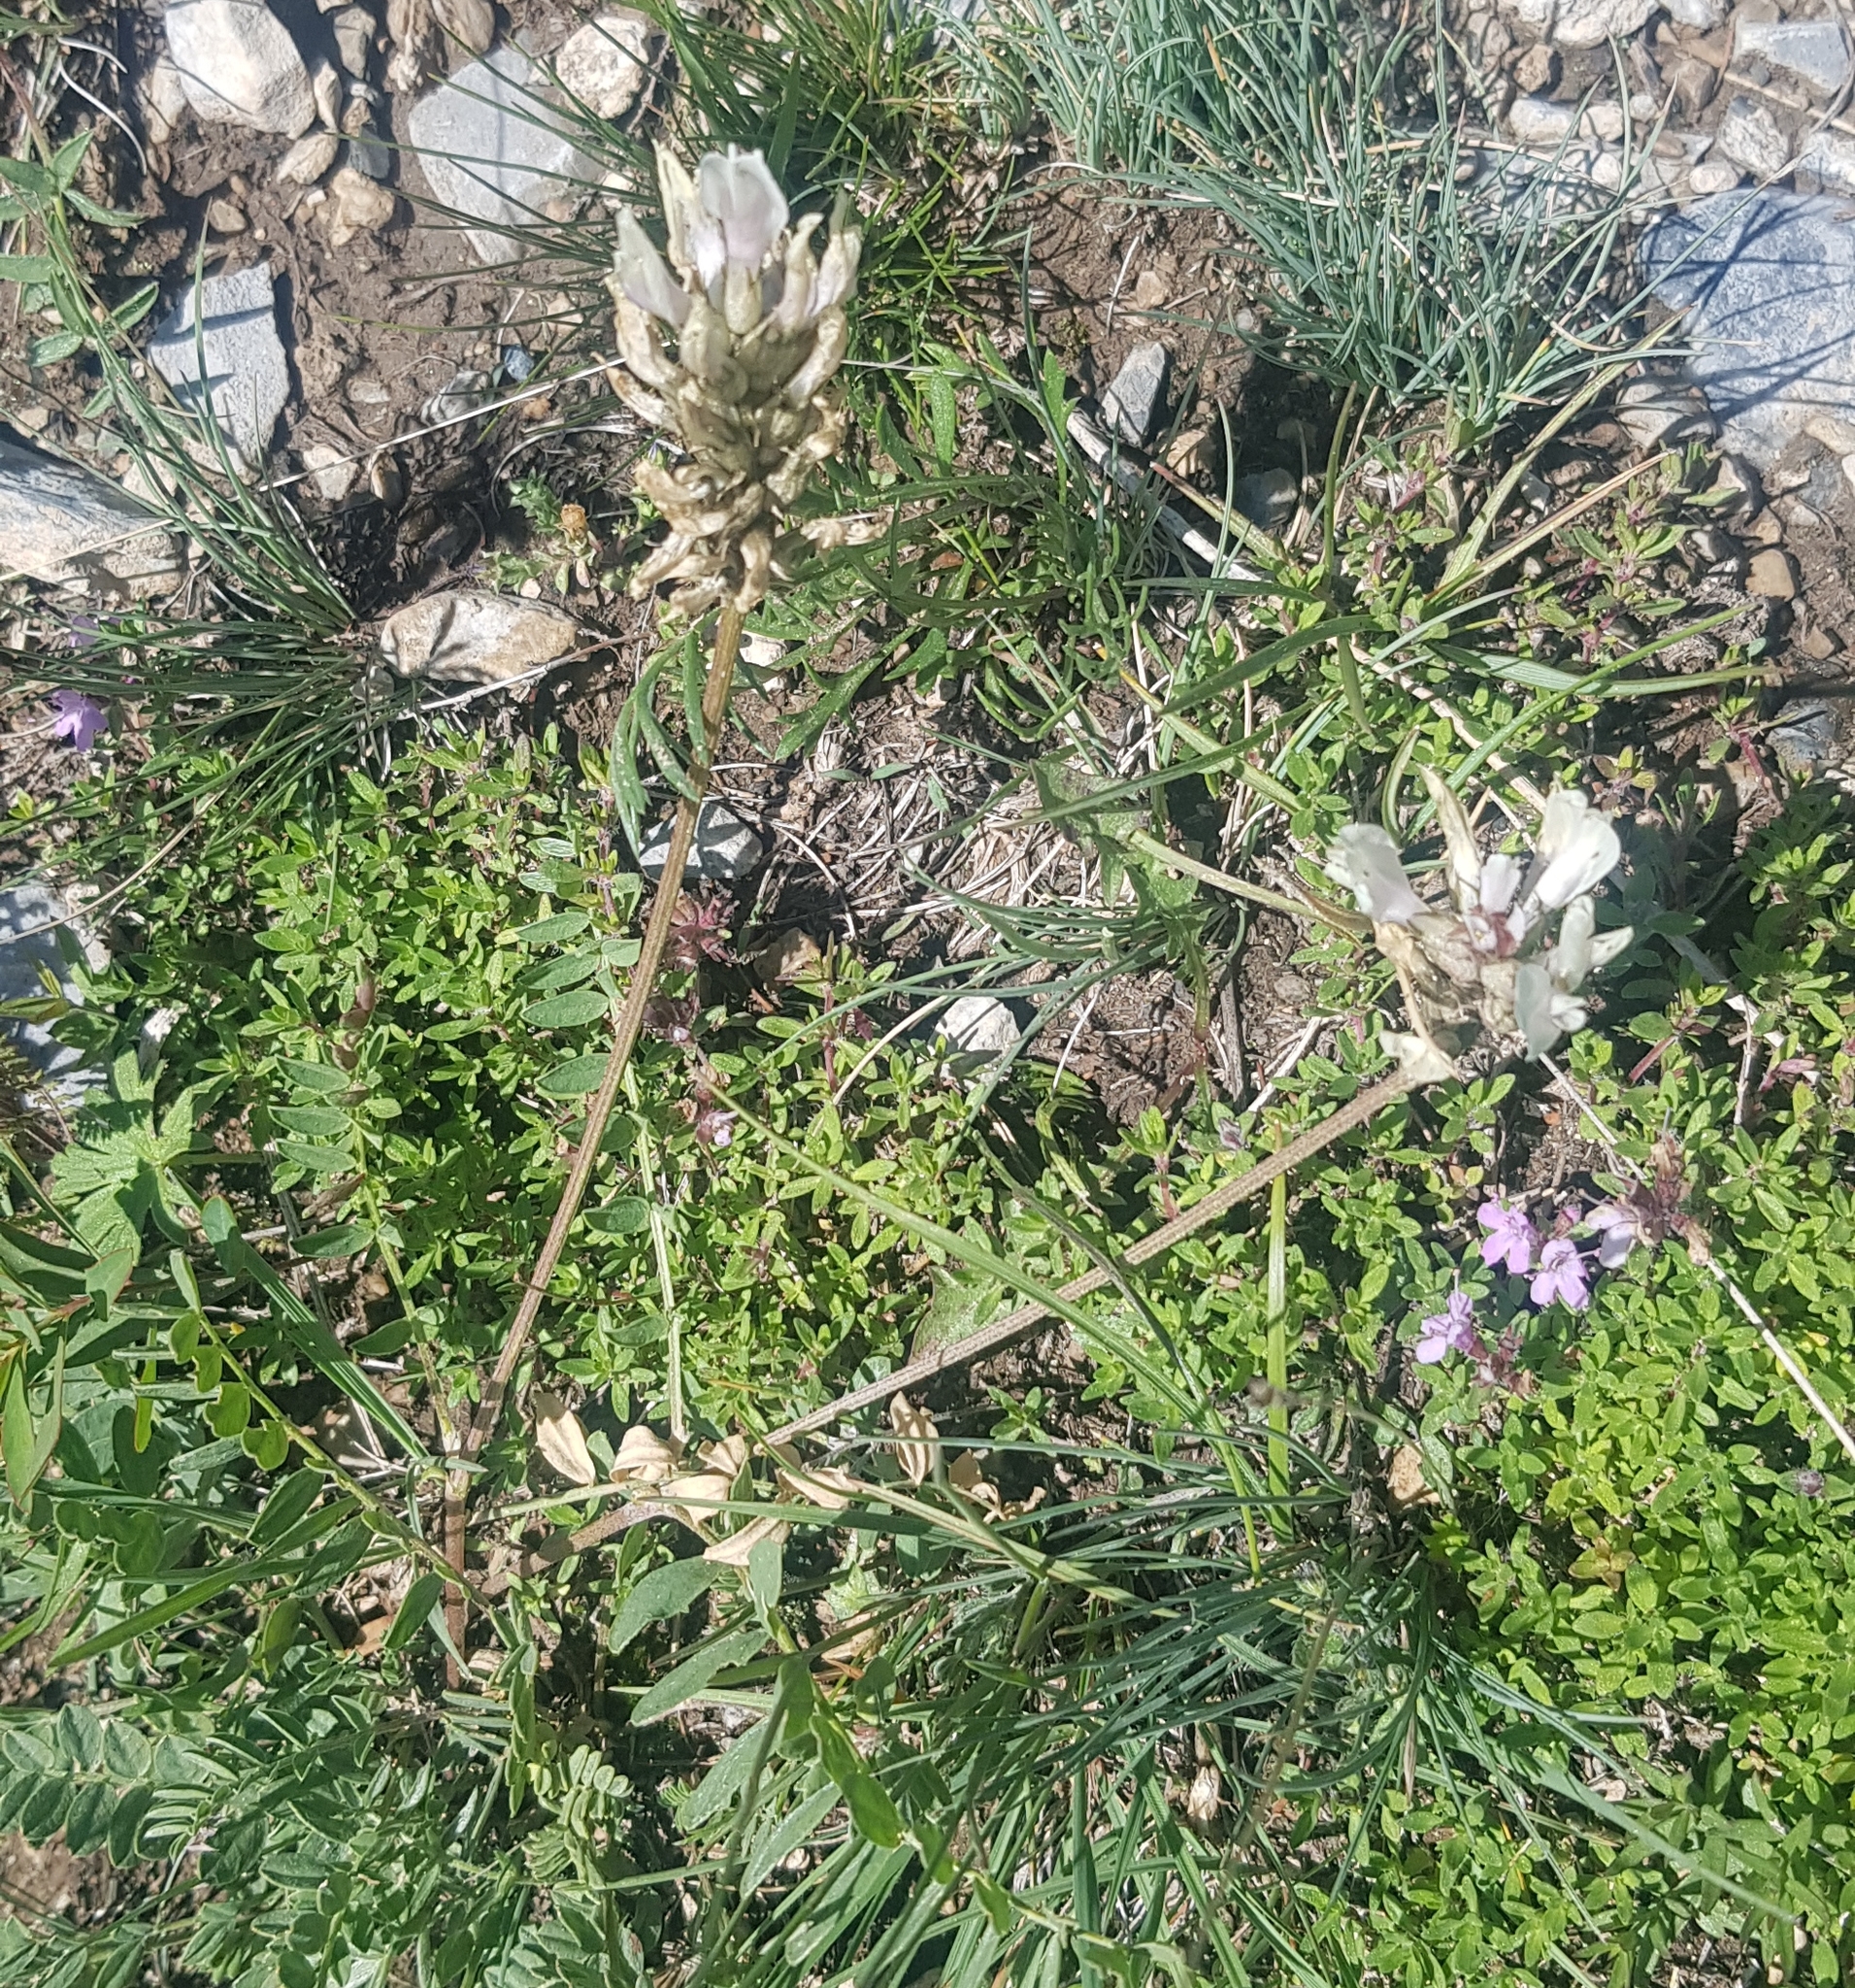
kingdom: Plantae
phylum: Tracheophyta
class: Magnoliopsida
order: Fabales
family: Fabaceae
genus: Astragalus
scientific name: Astragalus laxmannii
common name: Laxmann's milk-vetch
